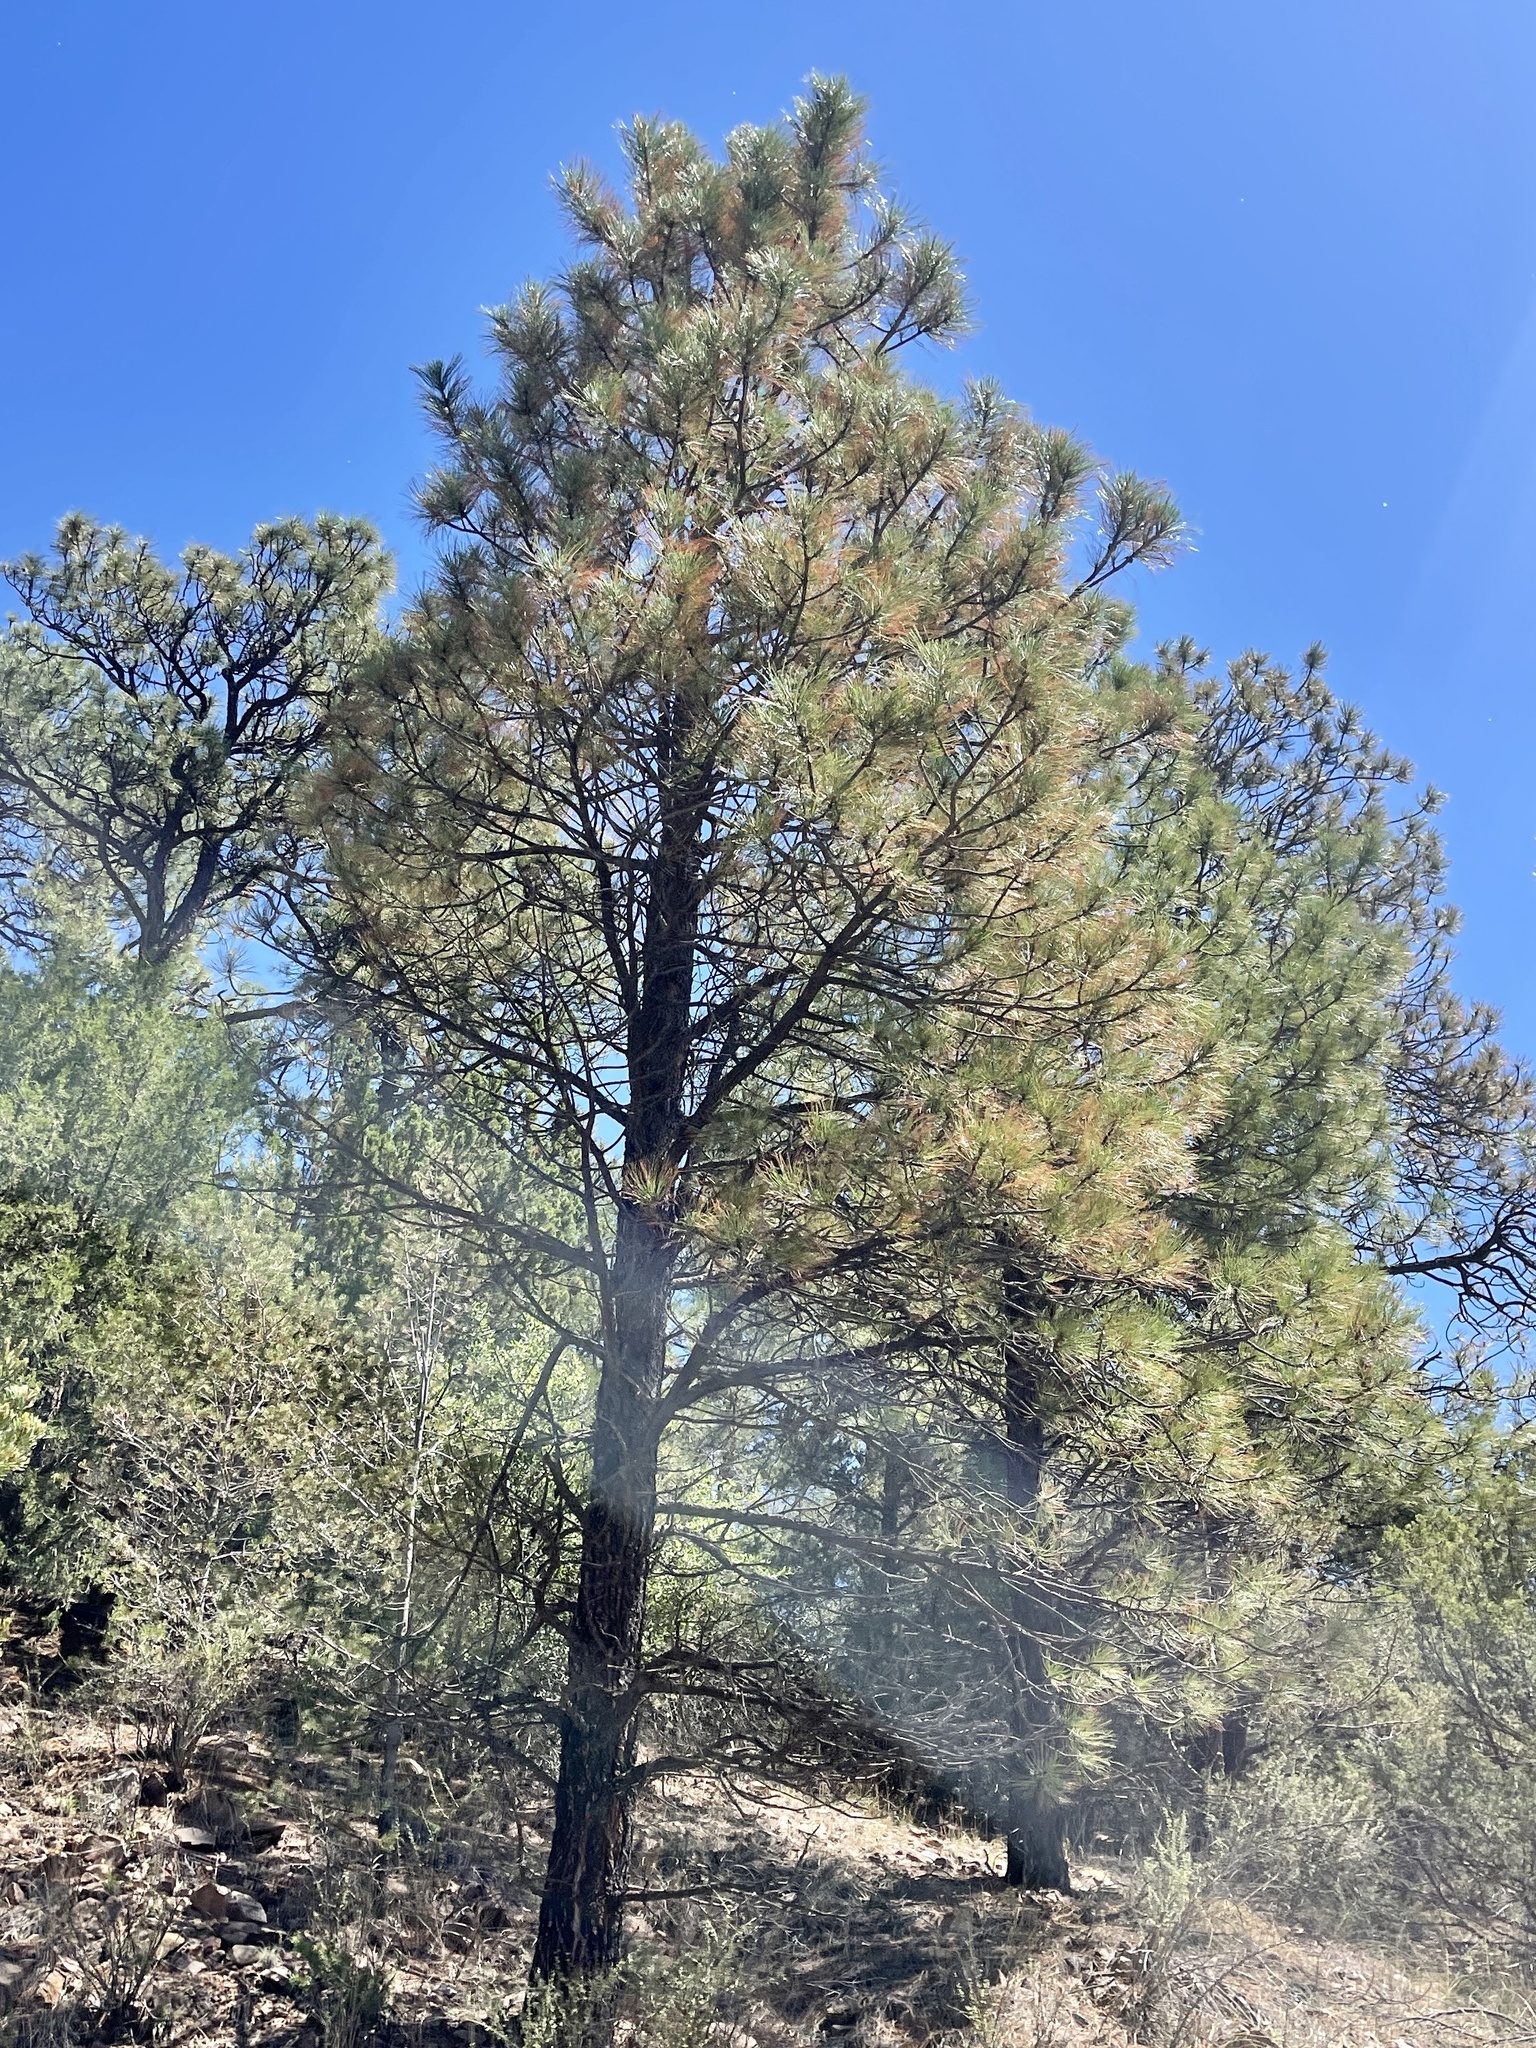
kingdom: Plantae
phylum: Tracheophyta
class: Pinopsida
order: Pinales
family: Pinaceae
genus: Pinus
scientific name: Pinus ponderosa
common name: Western yellow-pine
